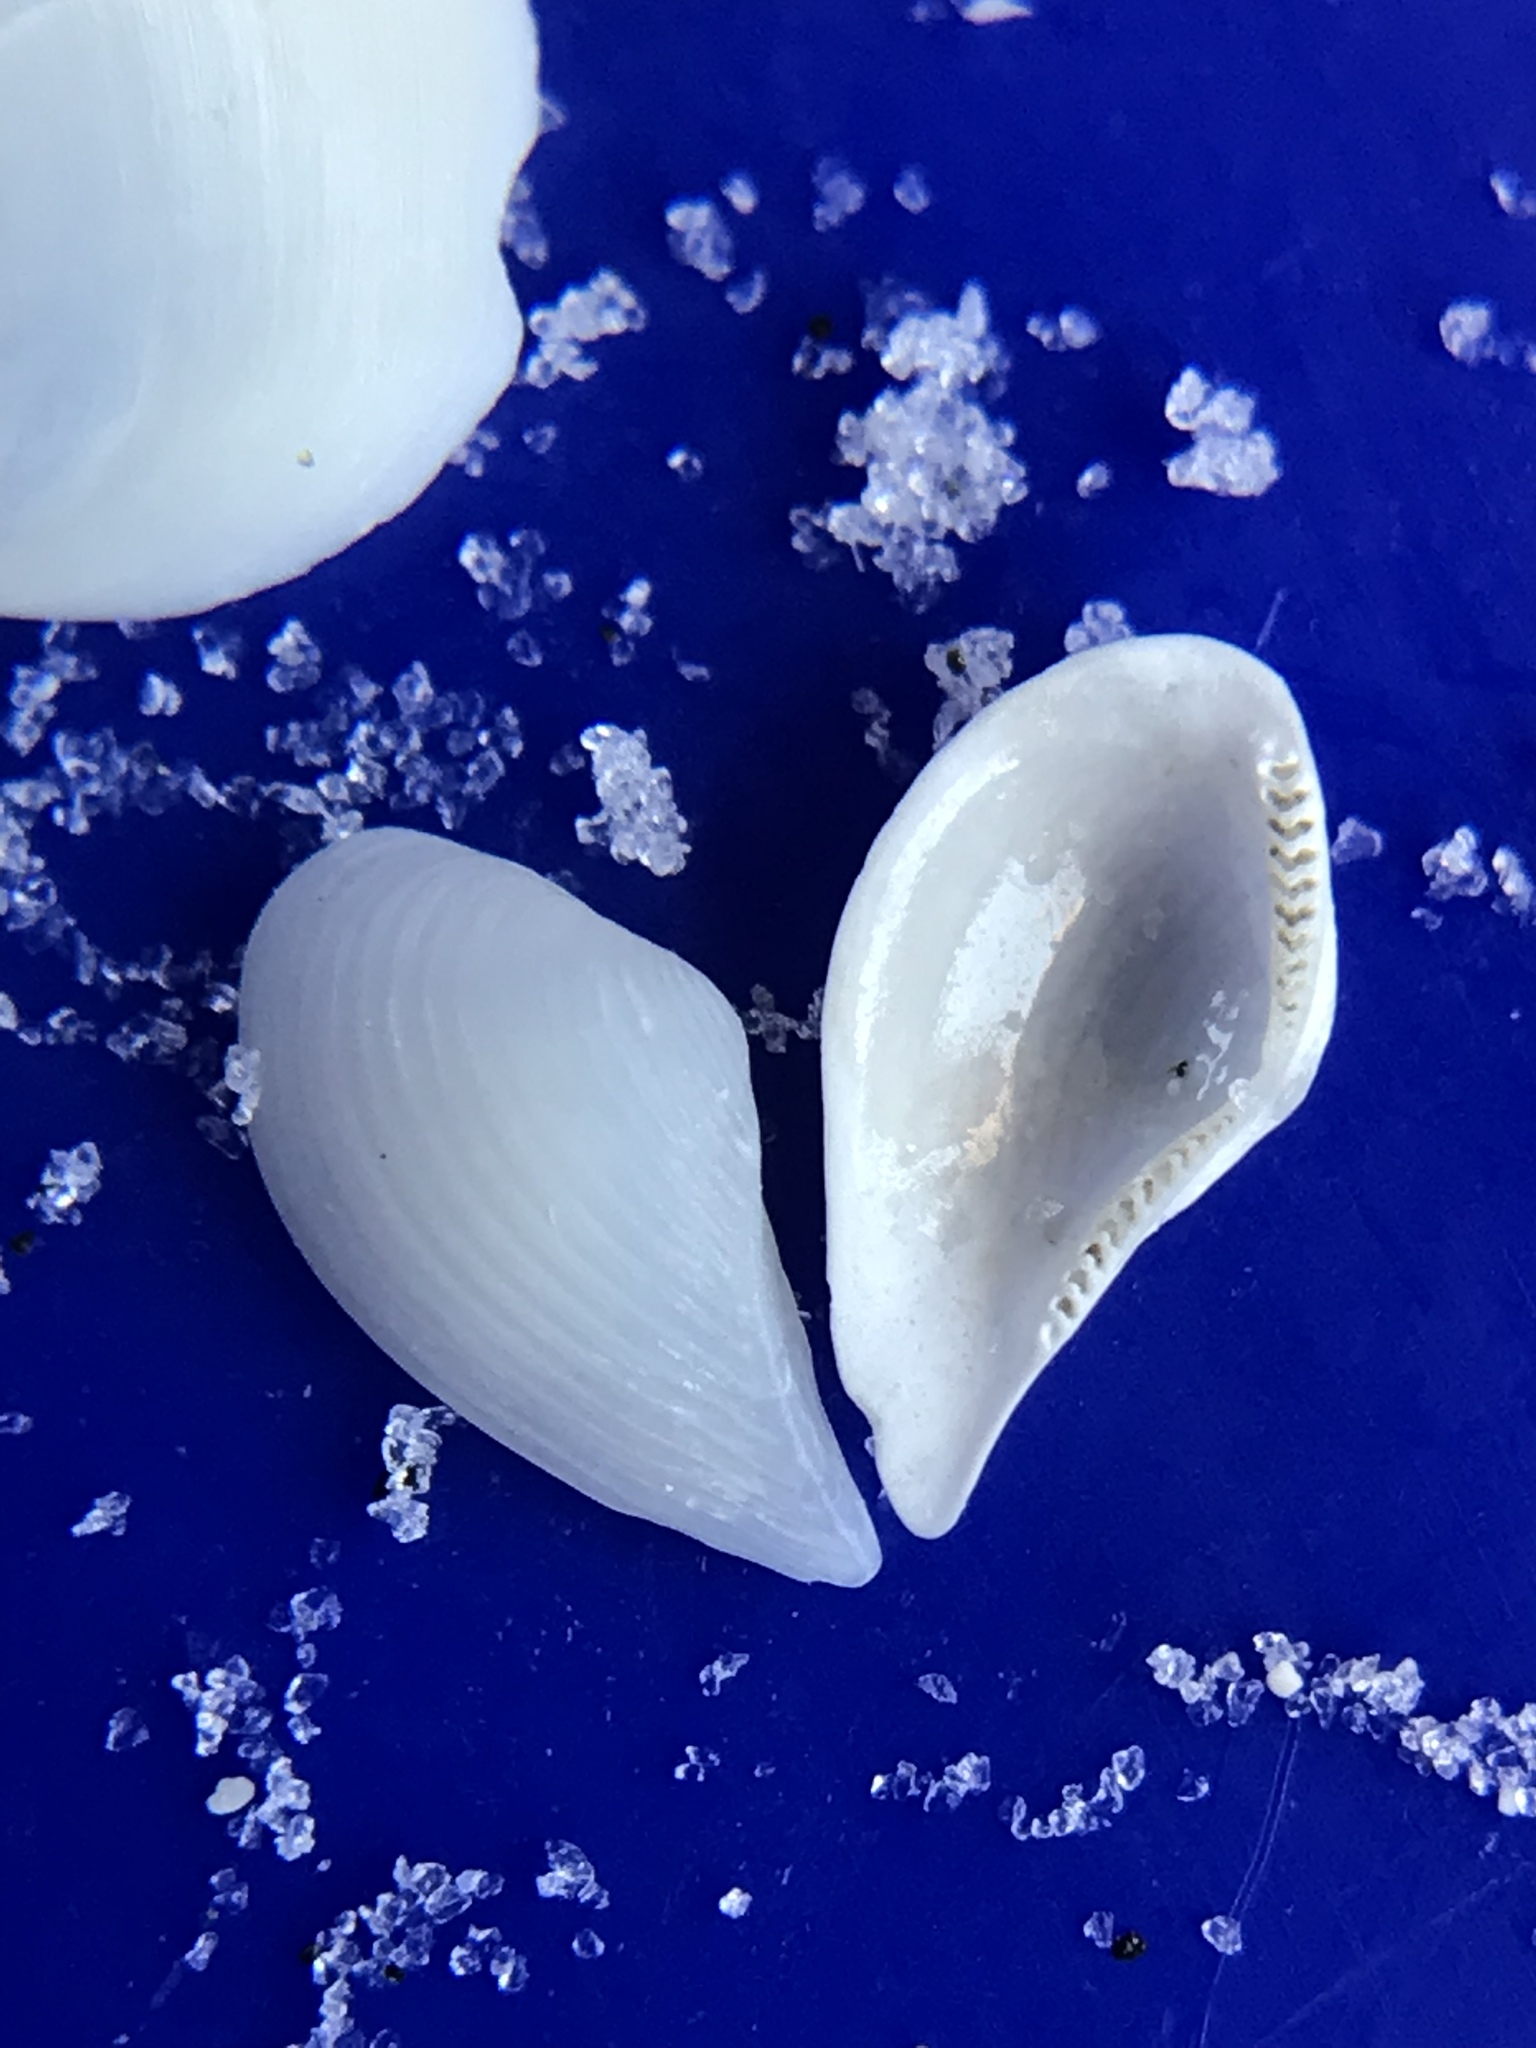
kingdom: Animalia
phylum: Mollusca
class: Bivalvia
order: Nuculanida
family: Nuculanidae
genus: Nuculana
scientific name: Nuculana acuta
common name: Pointed nut clam
